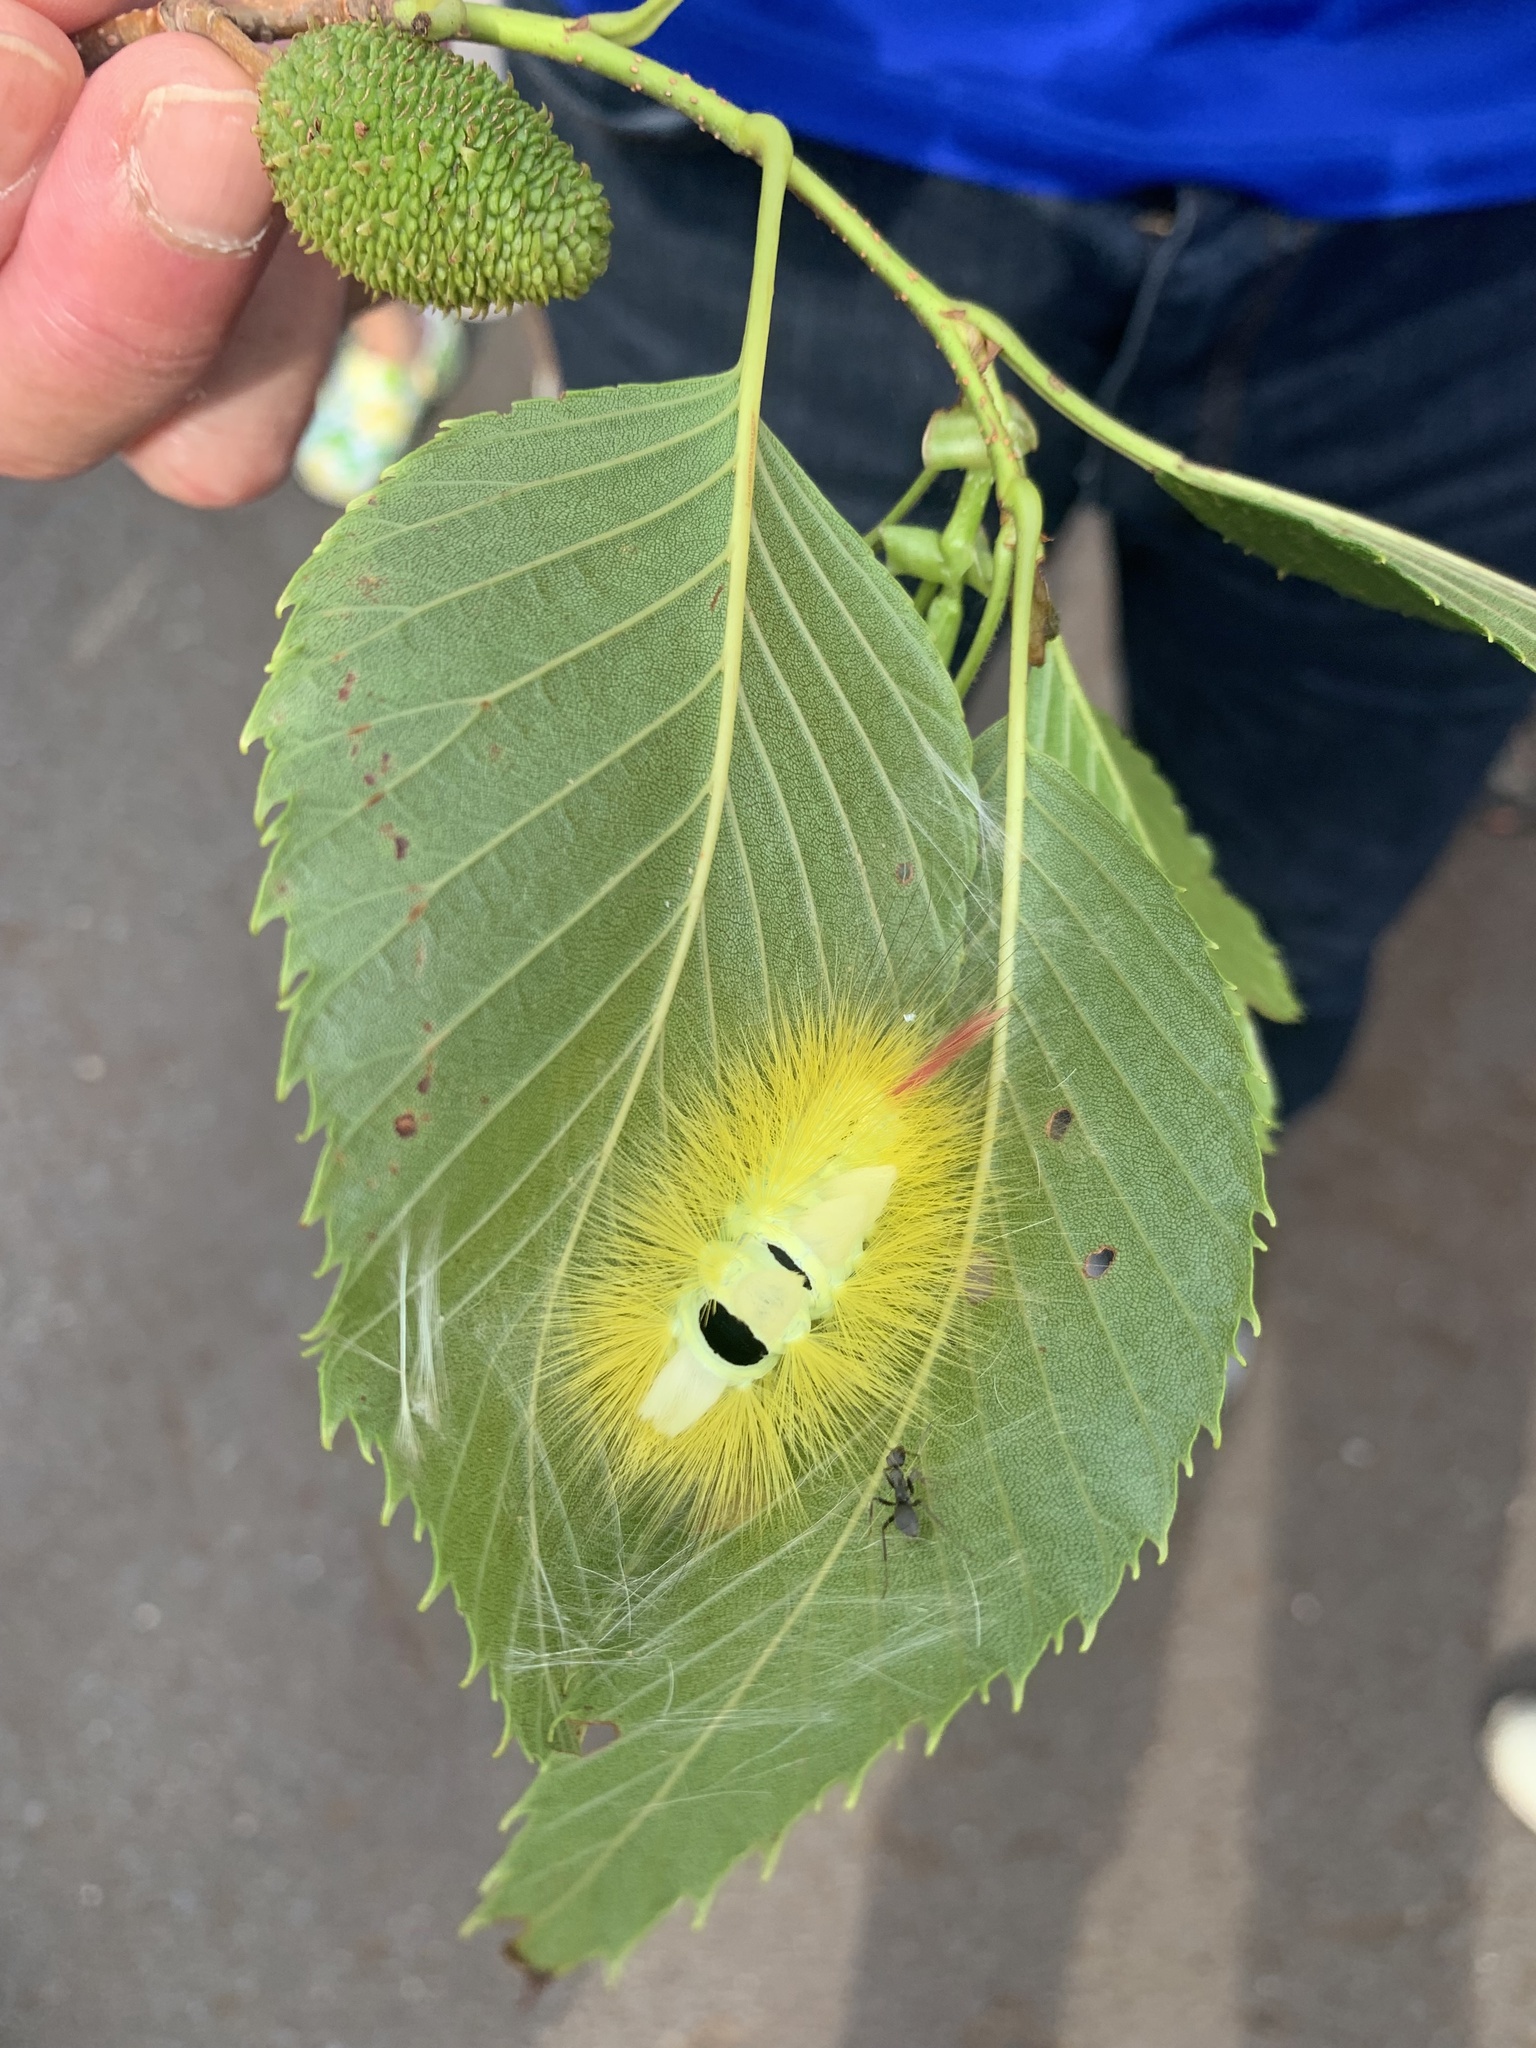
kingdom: Animalia
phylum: Arthropoda
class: Insecta
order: Lepidoptera
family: Erebidae
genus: Calliteara
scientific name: Calliteara
